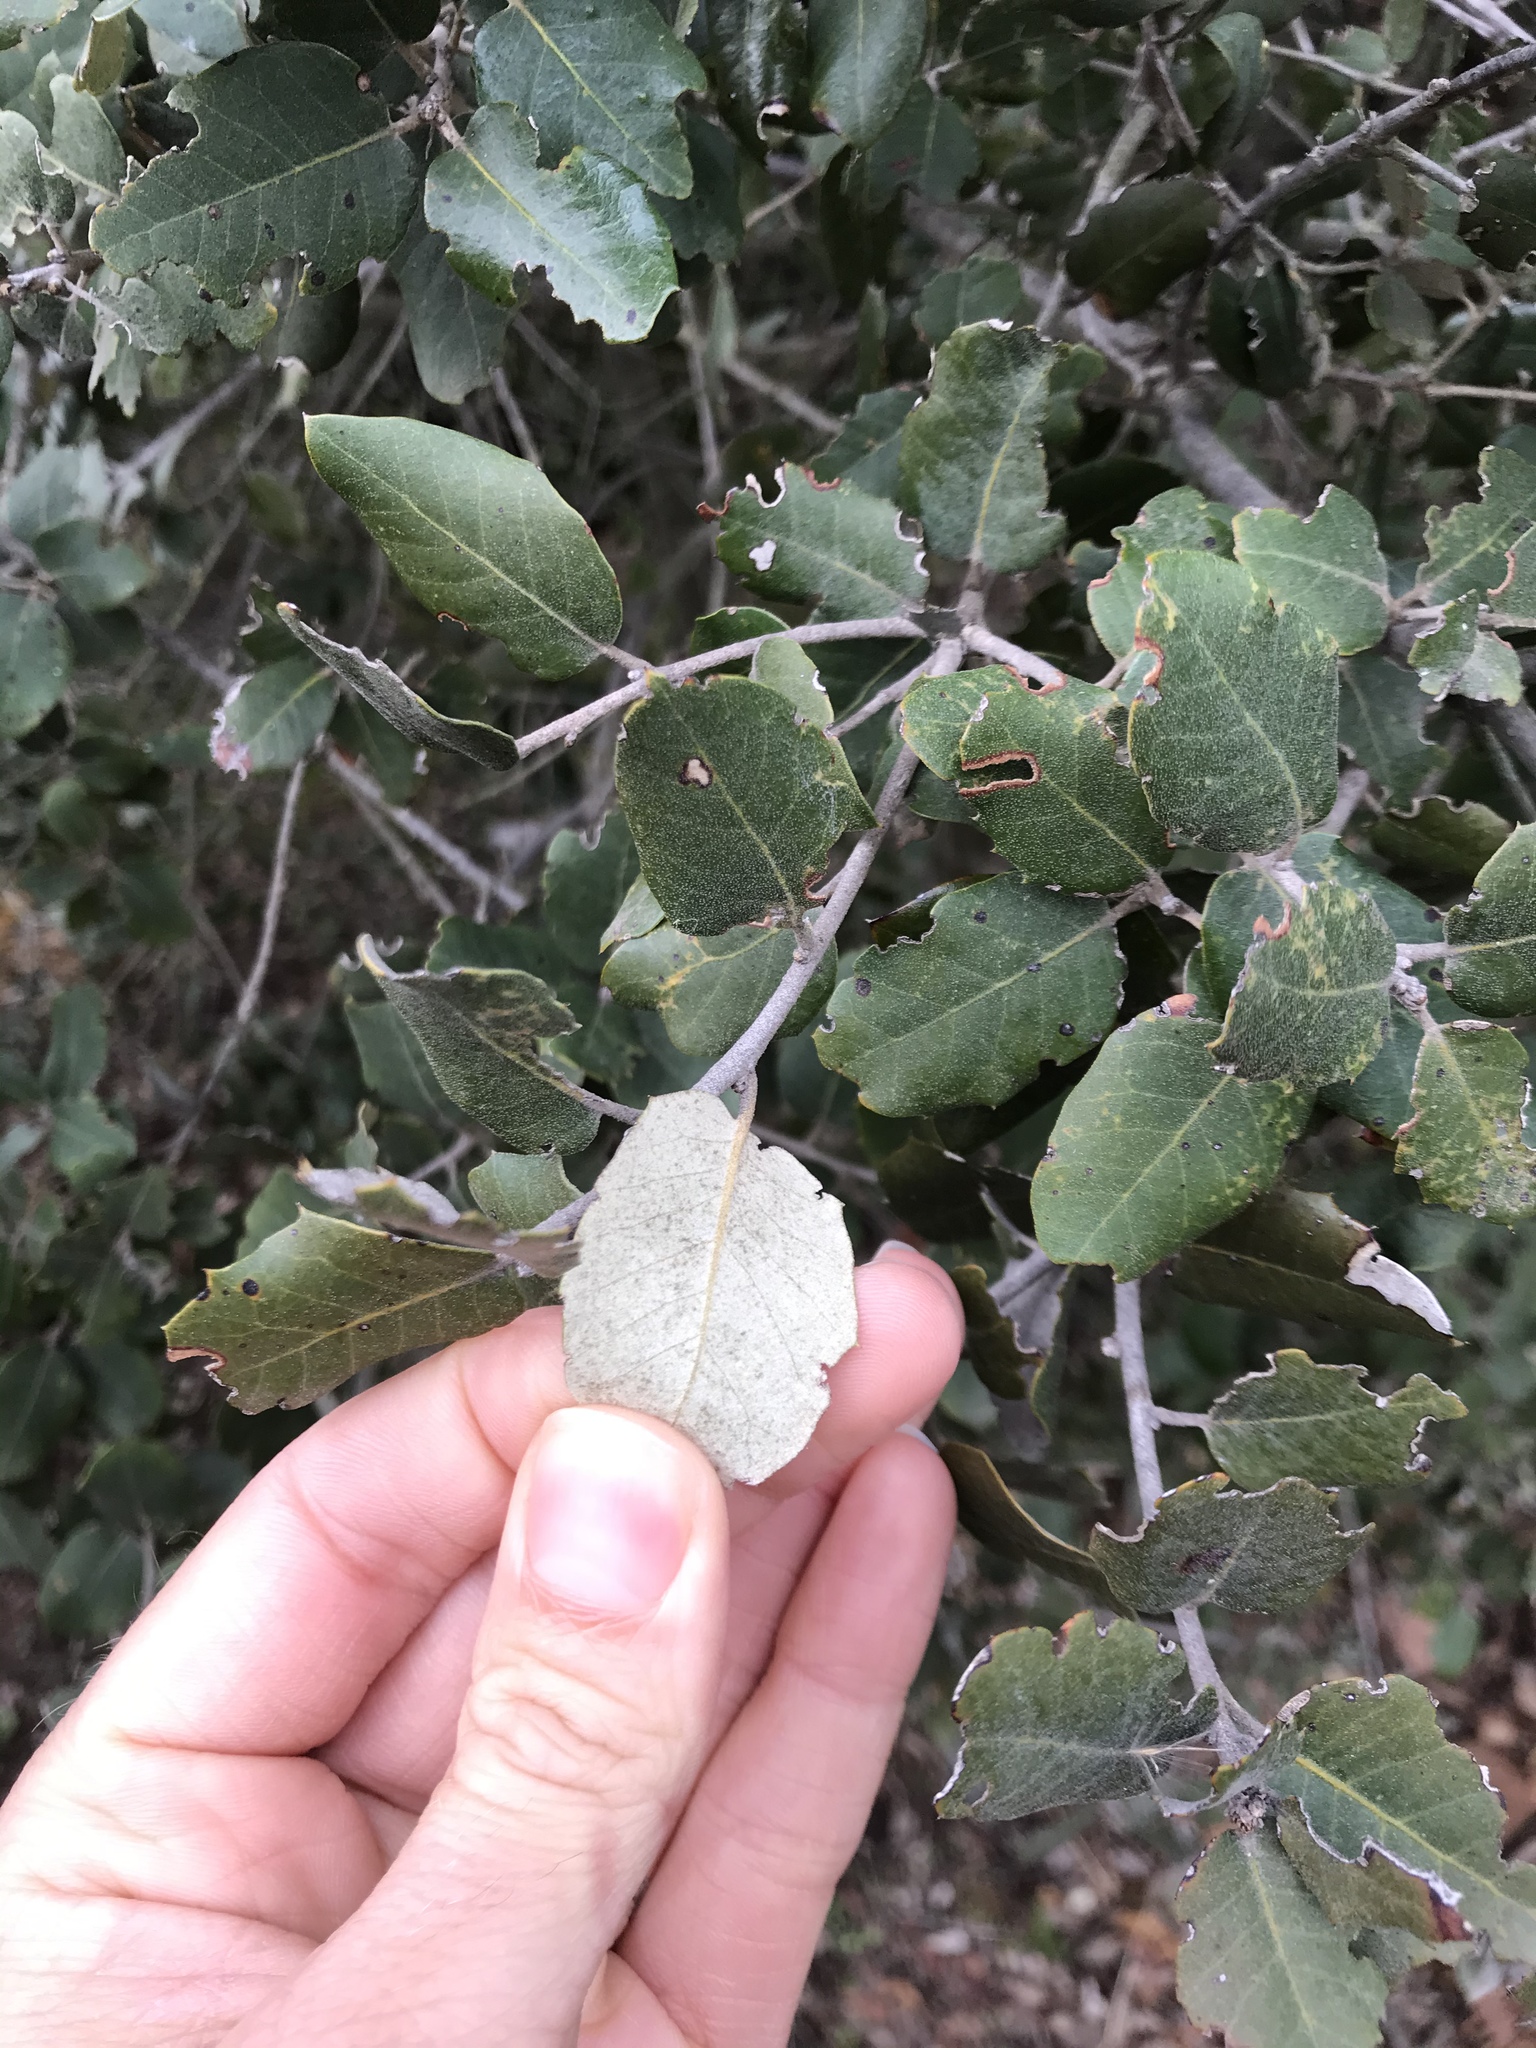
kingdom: Plantae
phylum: Tracheophyta
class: Magnoliopsida
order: Fagales
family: Fagaceae
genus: Quercus
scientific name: Quercus ilex
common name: Evergreen oak
